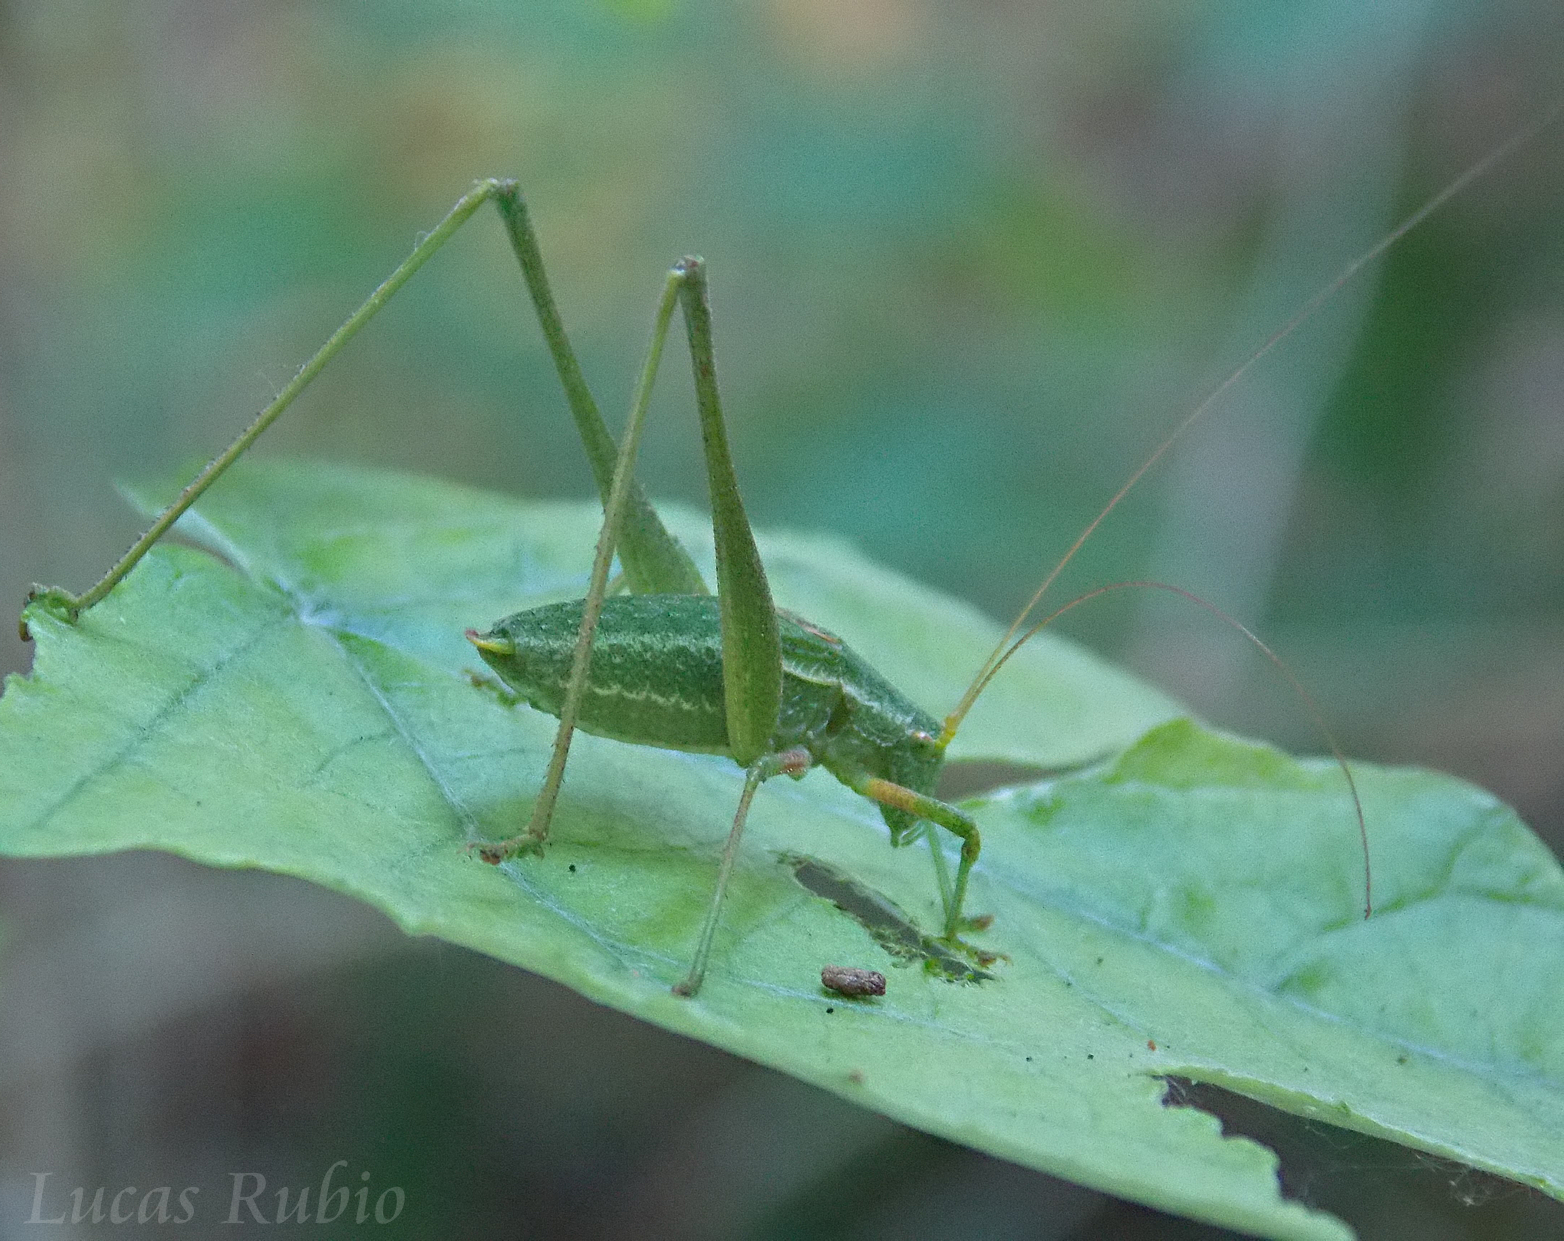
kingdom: Animalia
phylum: Arthropoda
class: Insecta
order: Orthoptera
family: Tettigoniidae
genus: Anisophya
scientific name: Anisophya punctinervis
